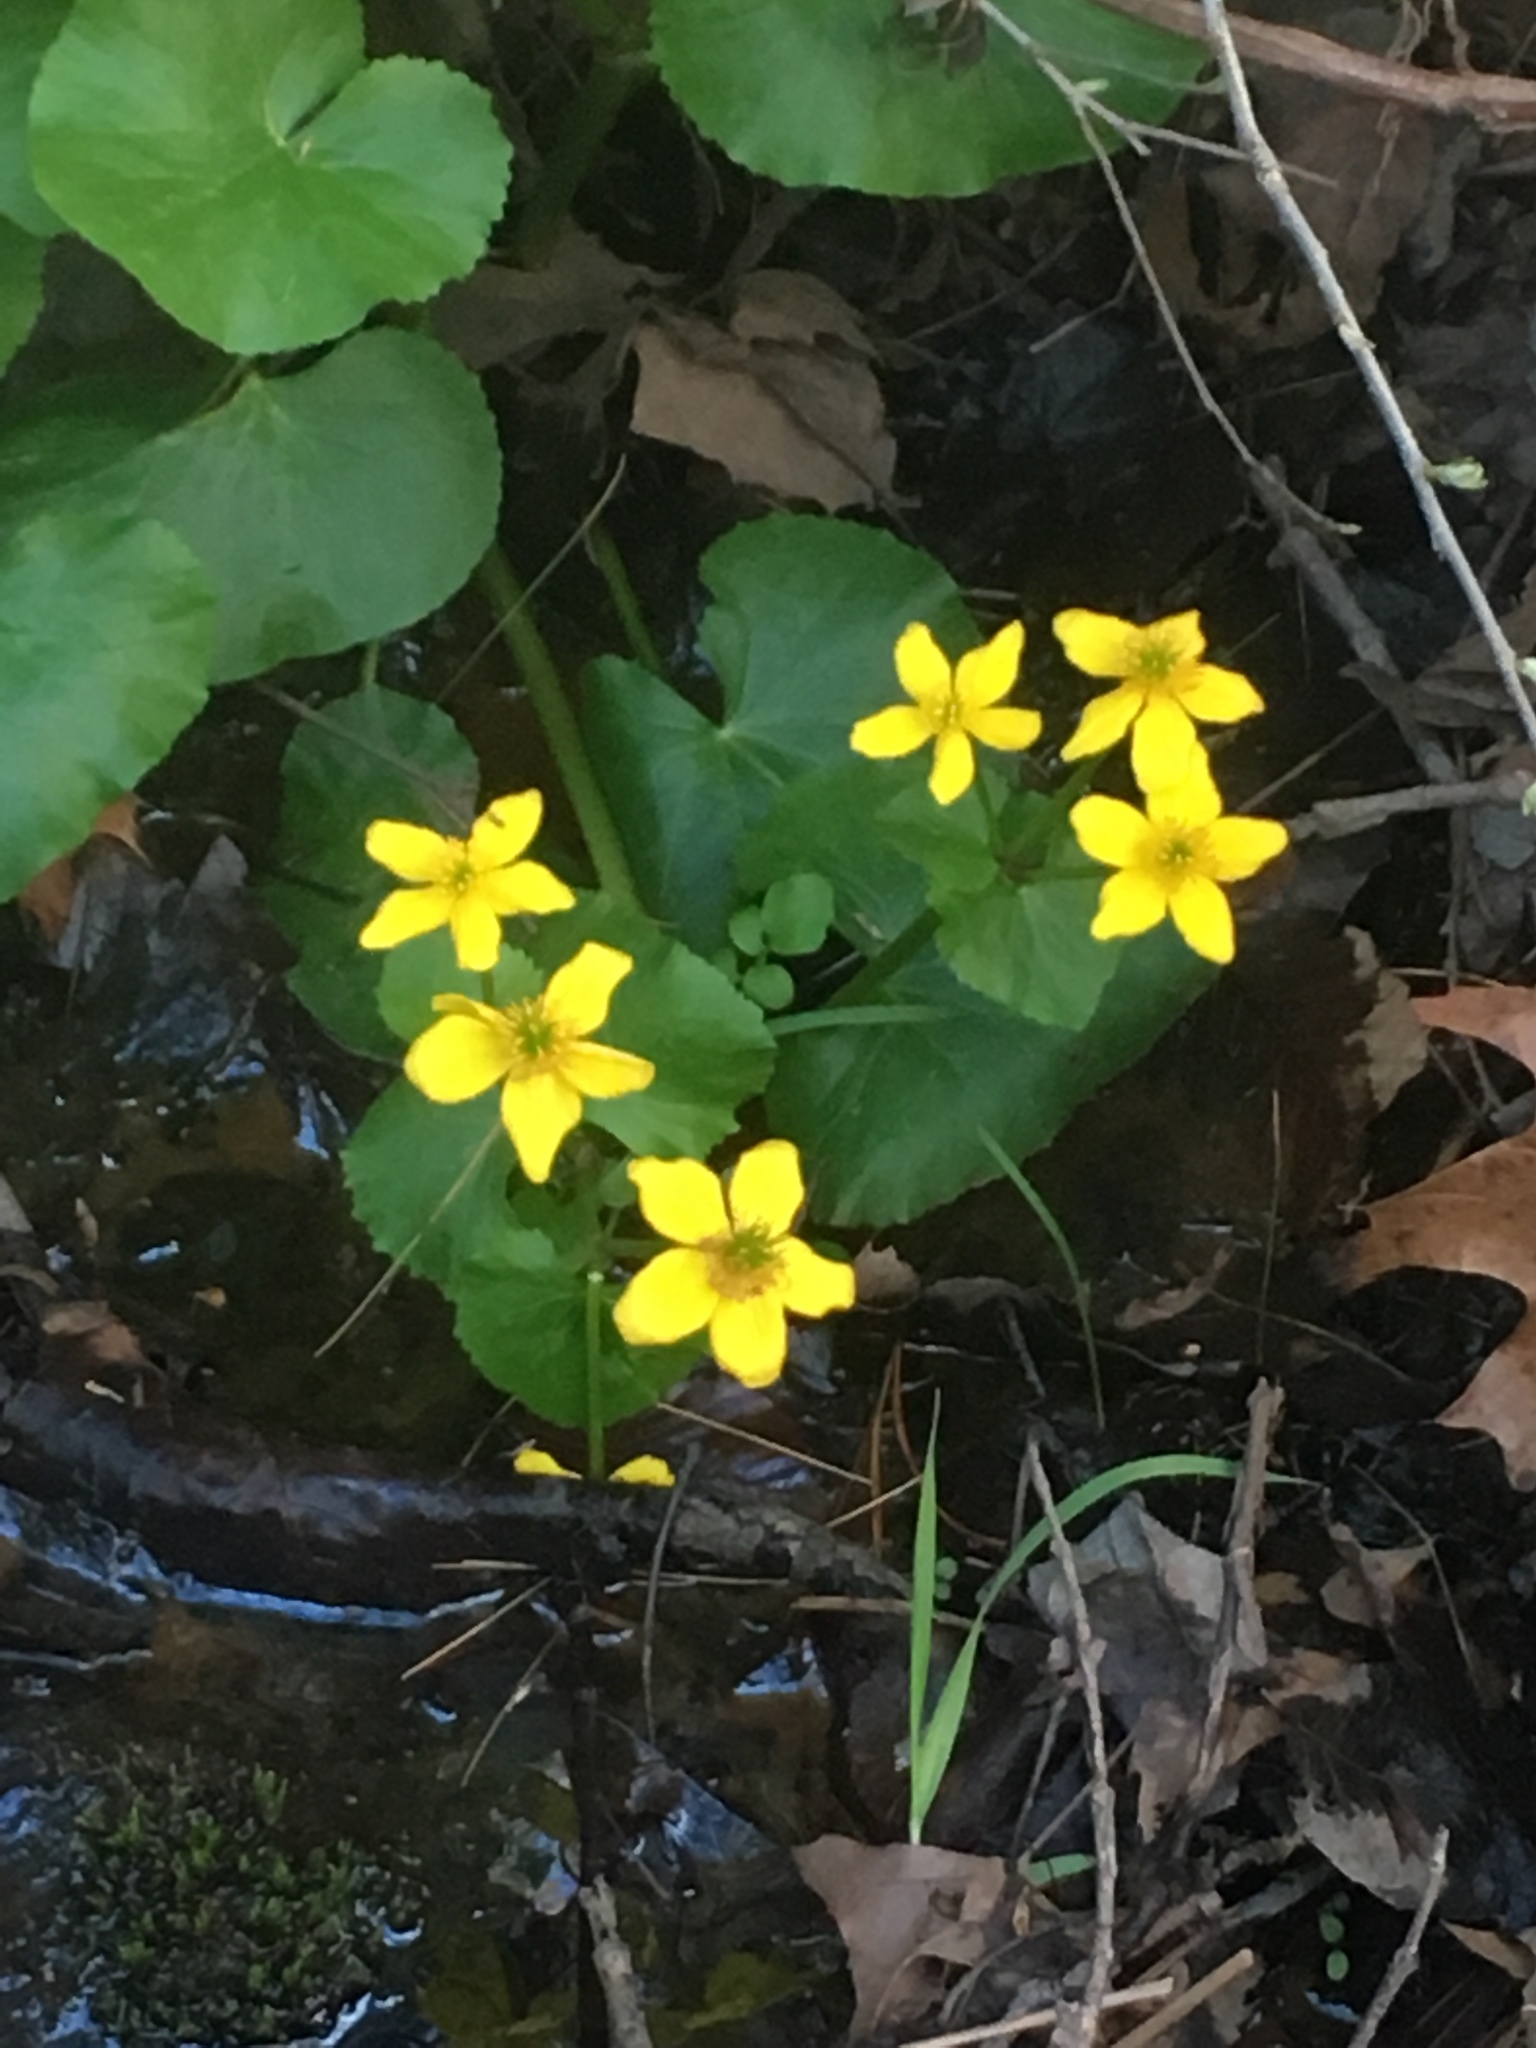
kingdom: Plantae
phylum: Tracheophyta
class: Magnoliopsida
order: Ranunculales
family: Ranunculaceae
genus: Caltha
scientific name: Caltha palustris
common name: Marsh marigold
